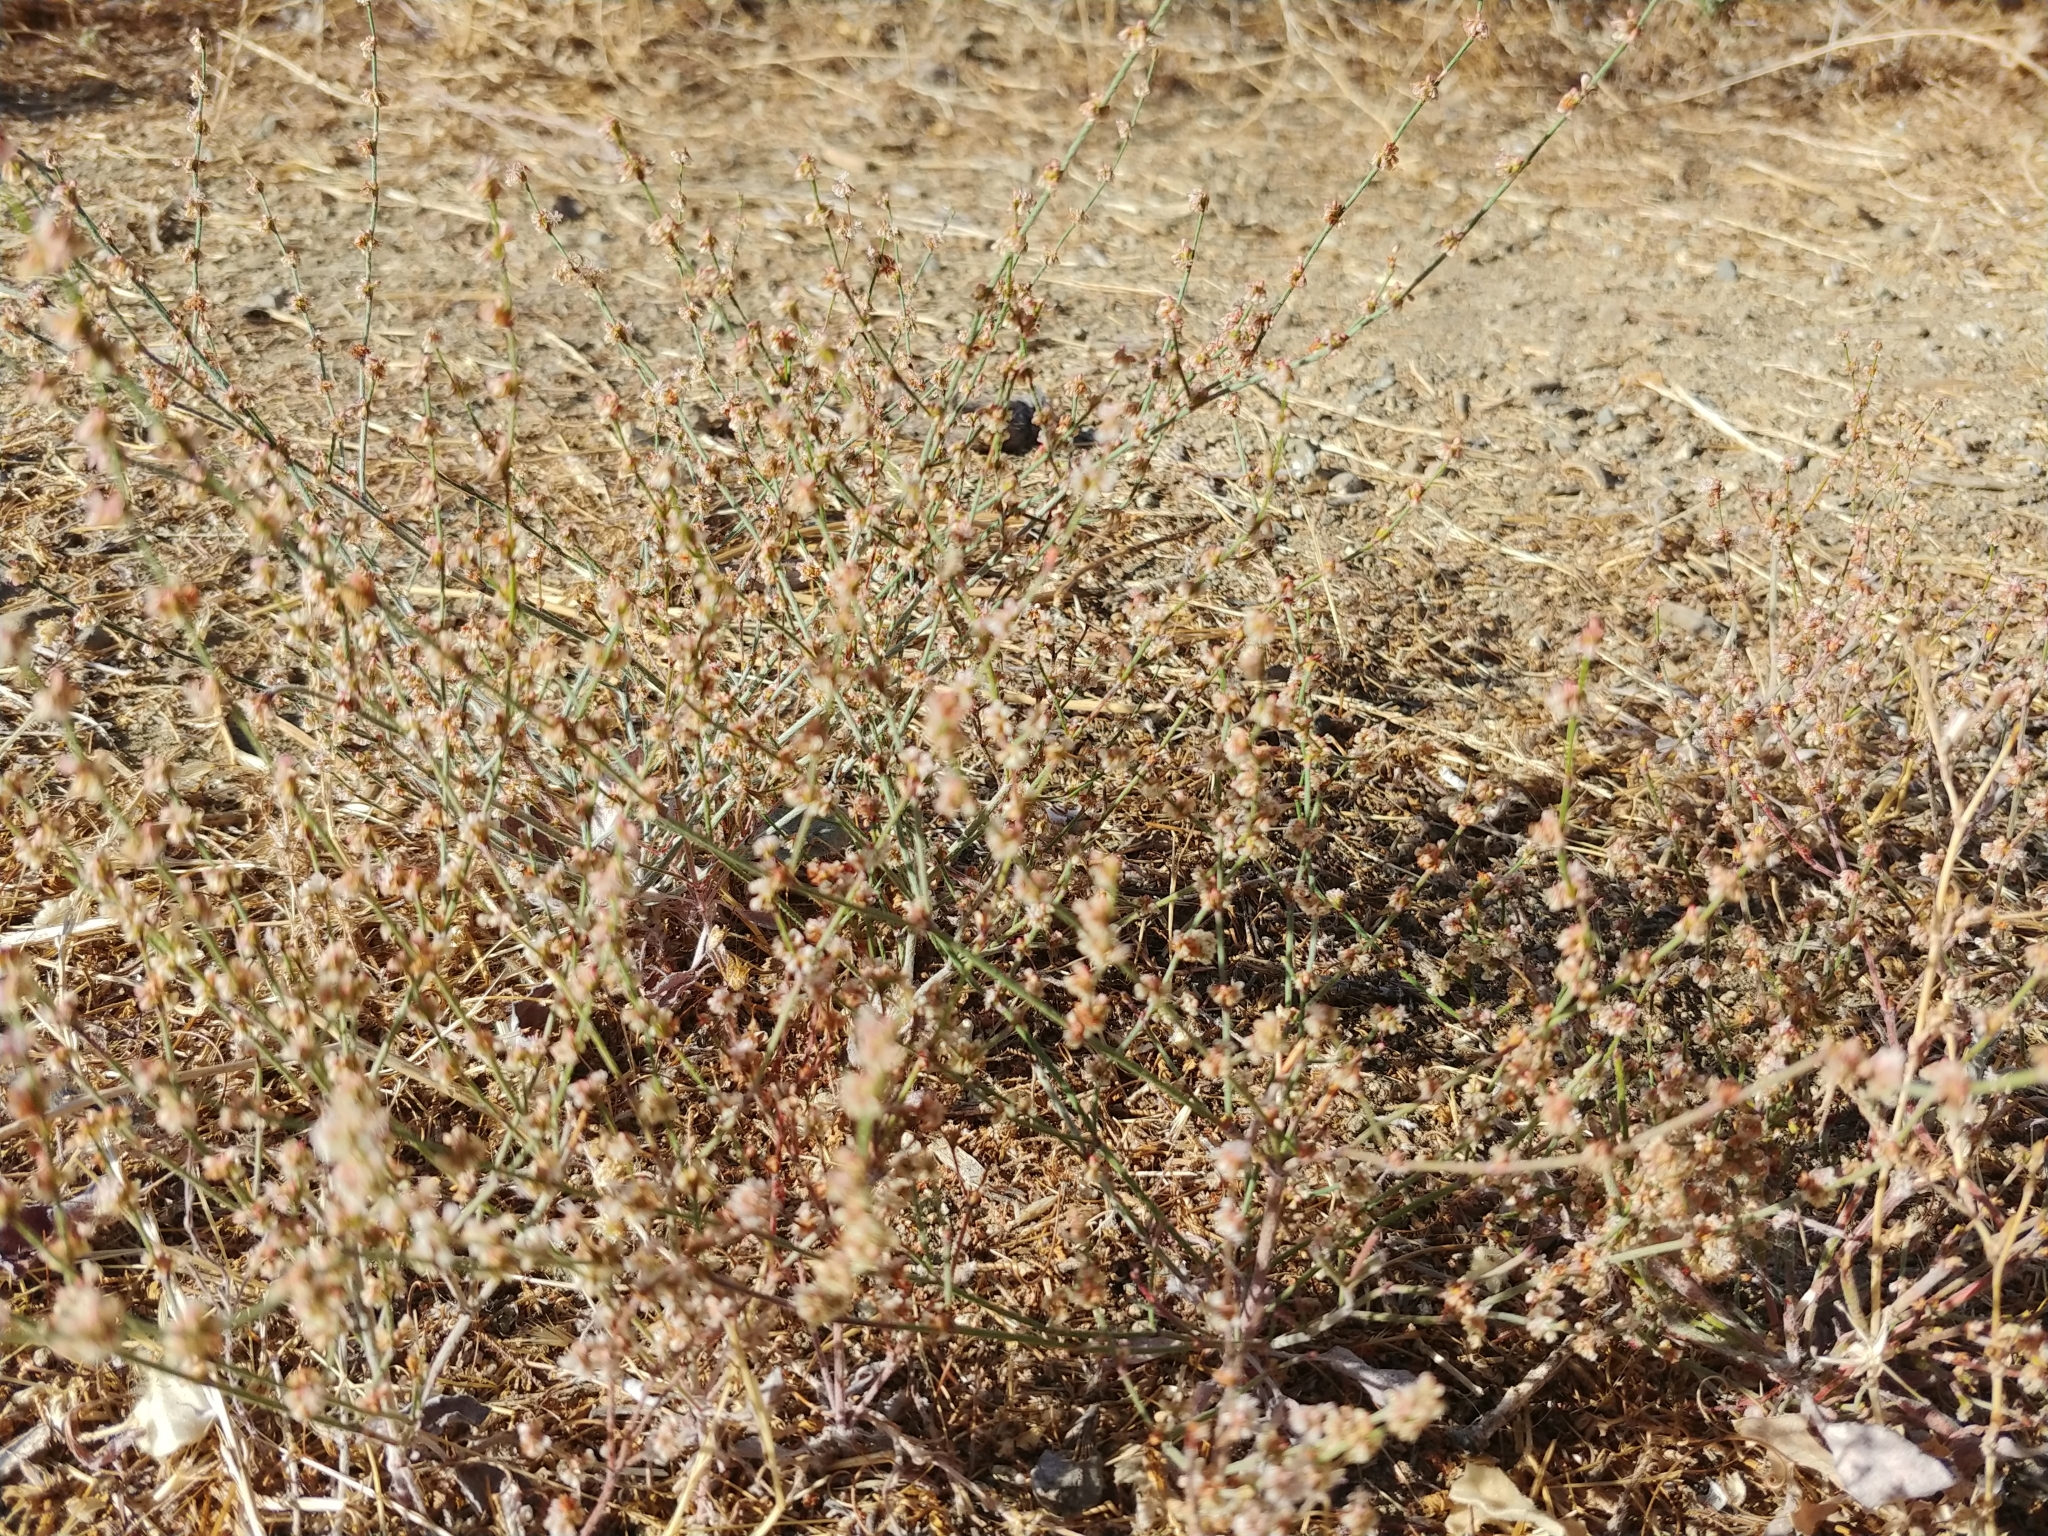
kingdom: Plantae
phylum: Tracheophyta
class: Magnoliopsida
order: Caryophyllales
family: Polygonaceae
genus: Eriogonum
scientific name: Eriogonum gracile
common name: Slender woolly buckwheat
